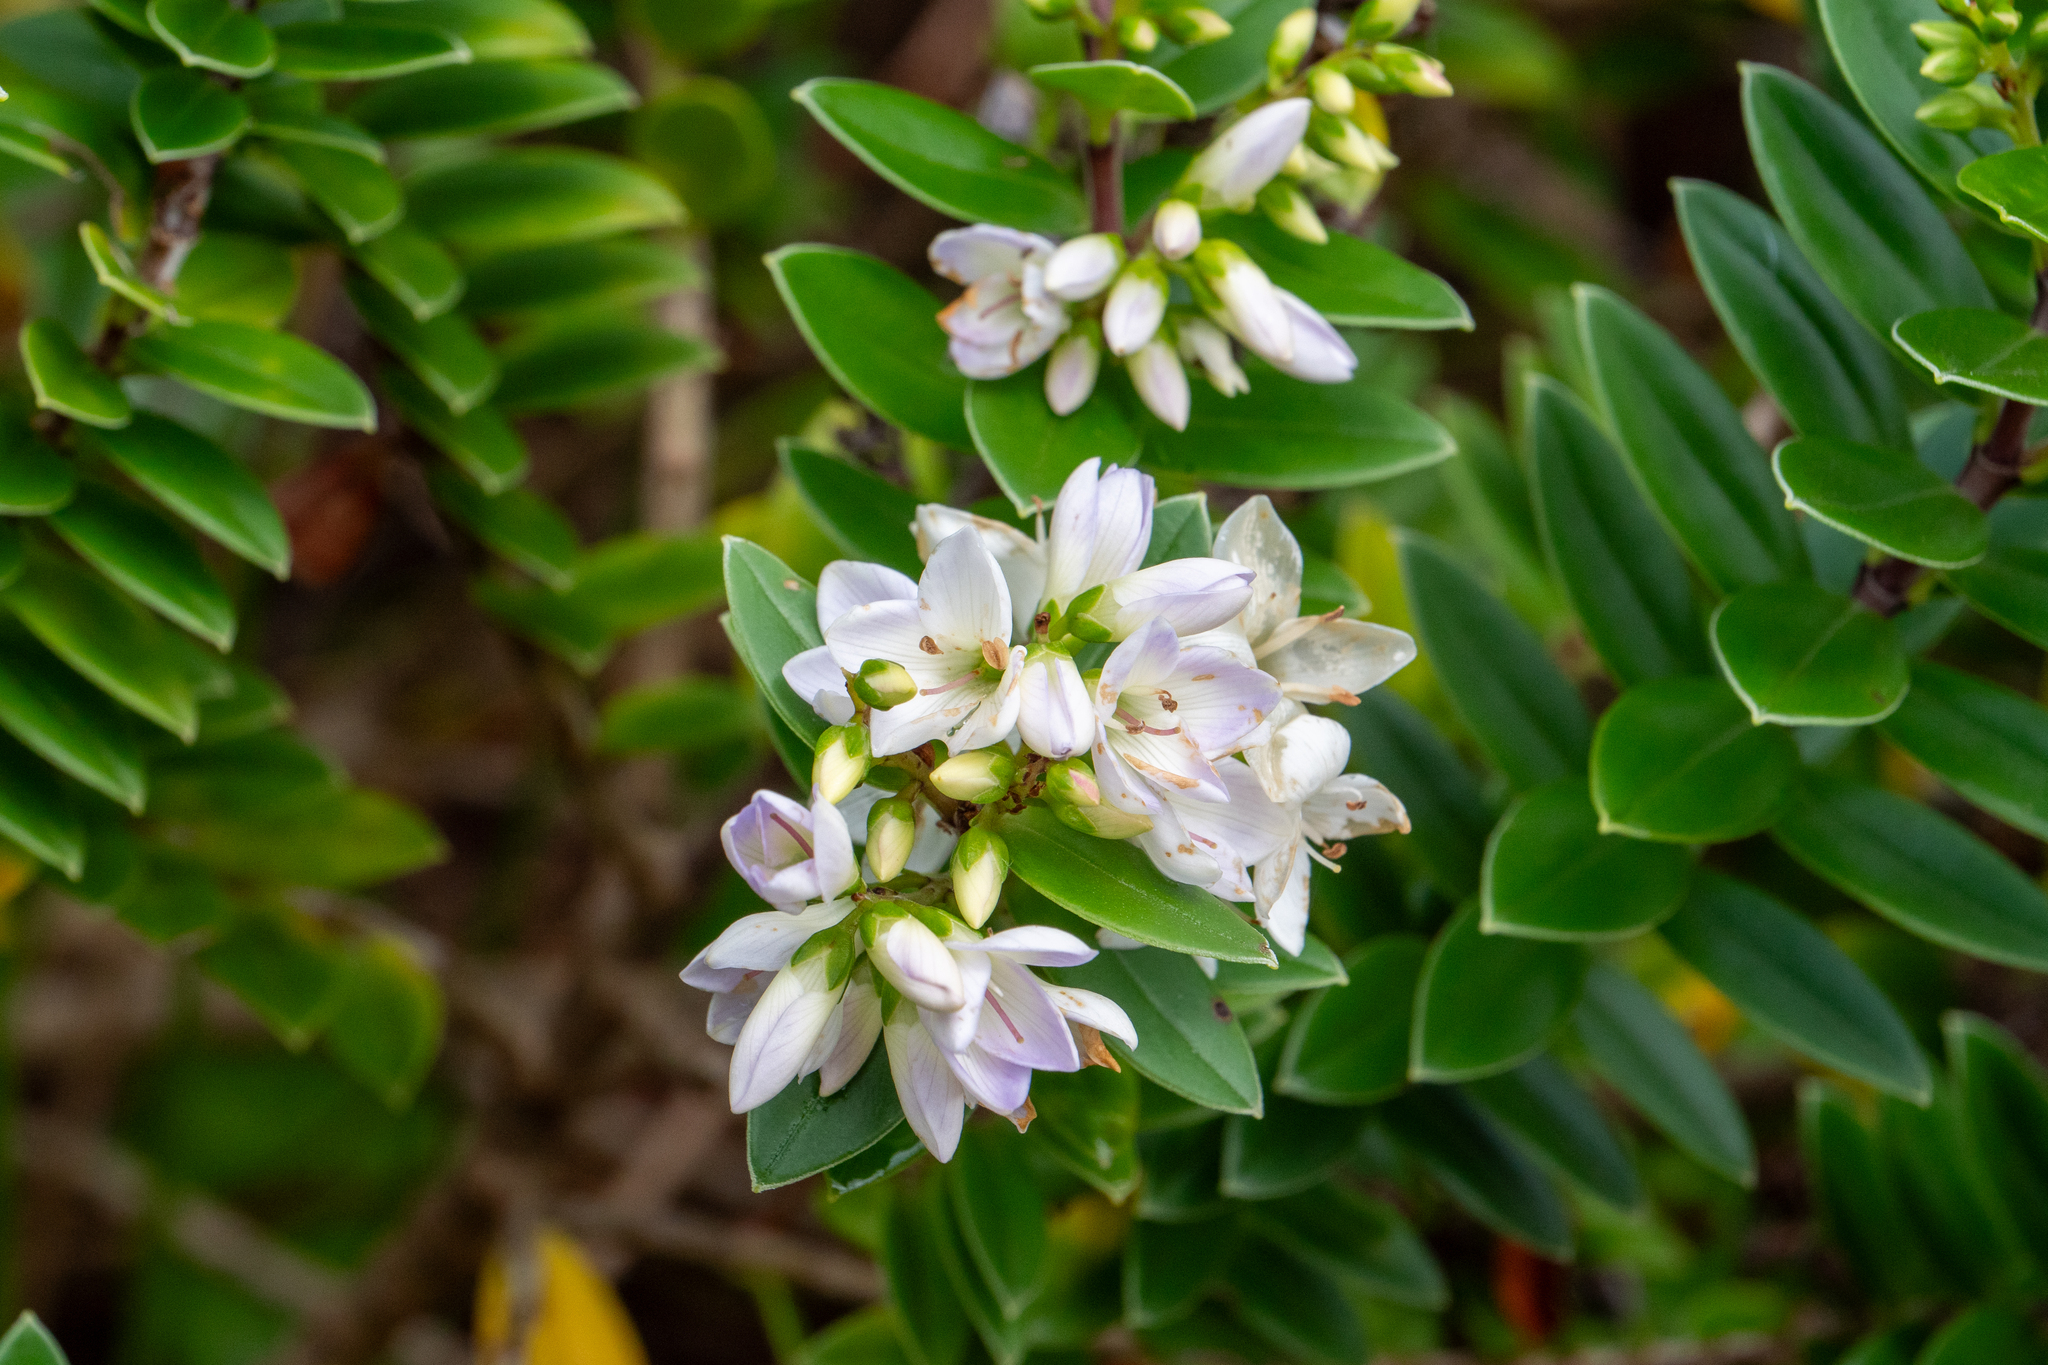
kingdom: Plantae
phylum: Tracheophyta
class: Magnoliopsida
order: Lamiales
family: Plantaginaceae
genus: Veronica
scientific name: Veronica elliptica
